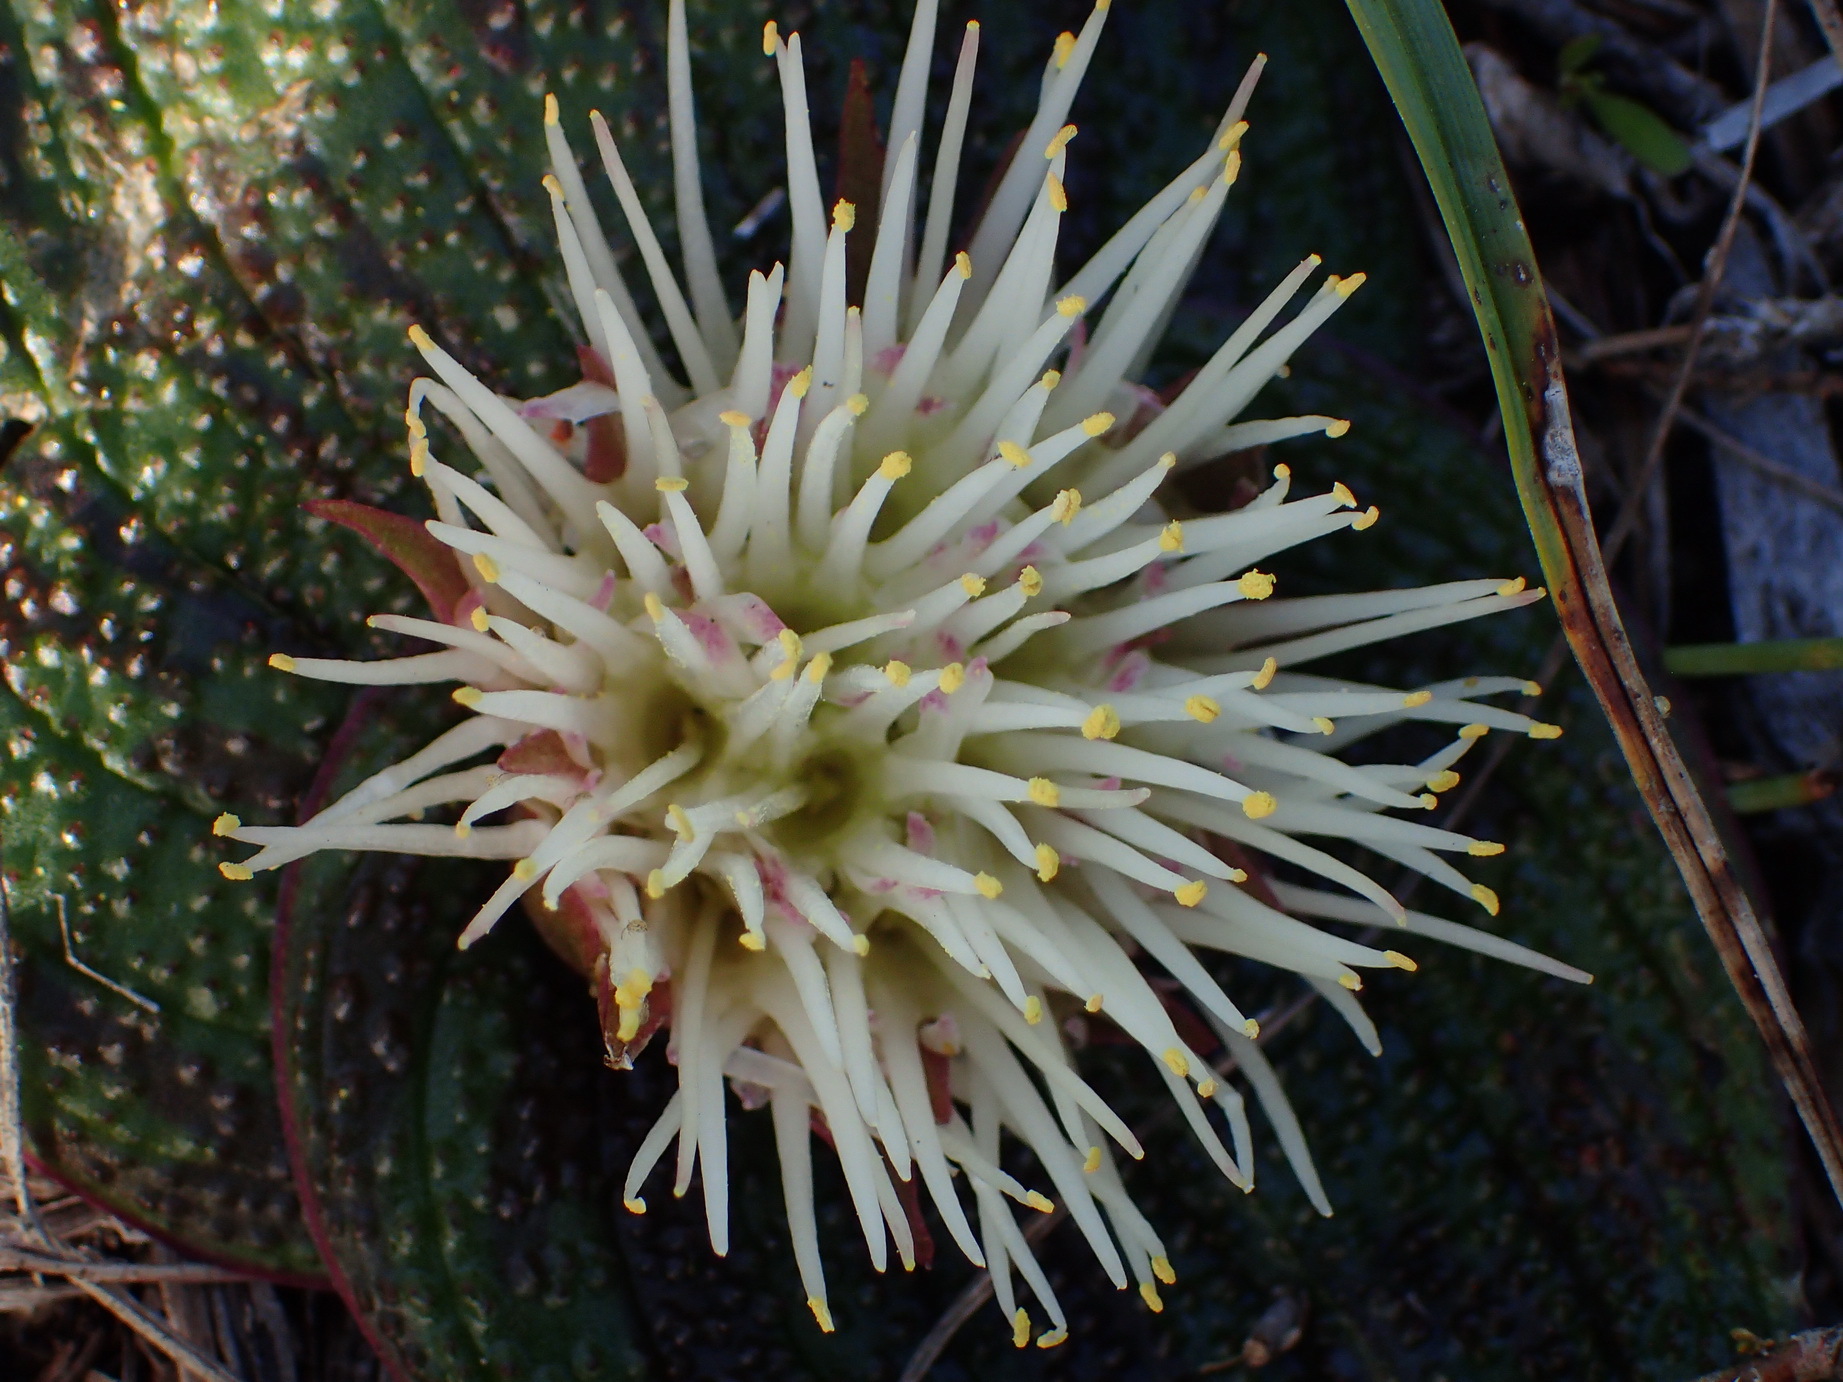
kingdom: Plantae
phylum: Tracheophyta
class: Liliopsida
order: Asparagales
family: Asparagaceae
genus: Massonia
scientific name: Massonia longipes
